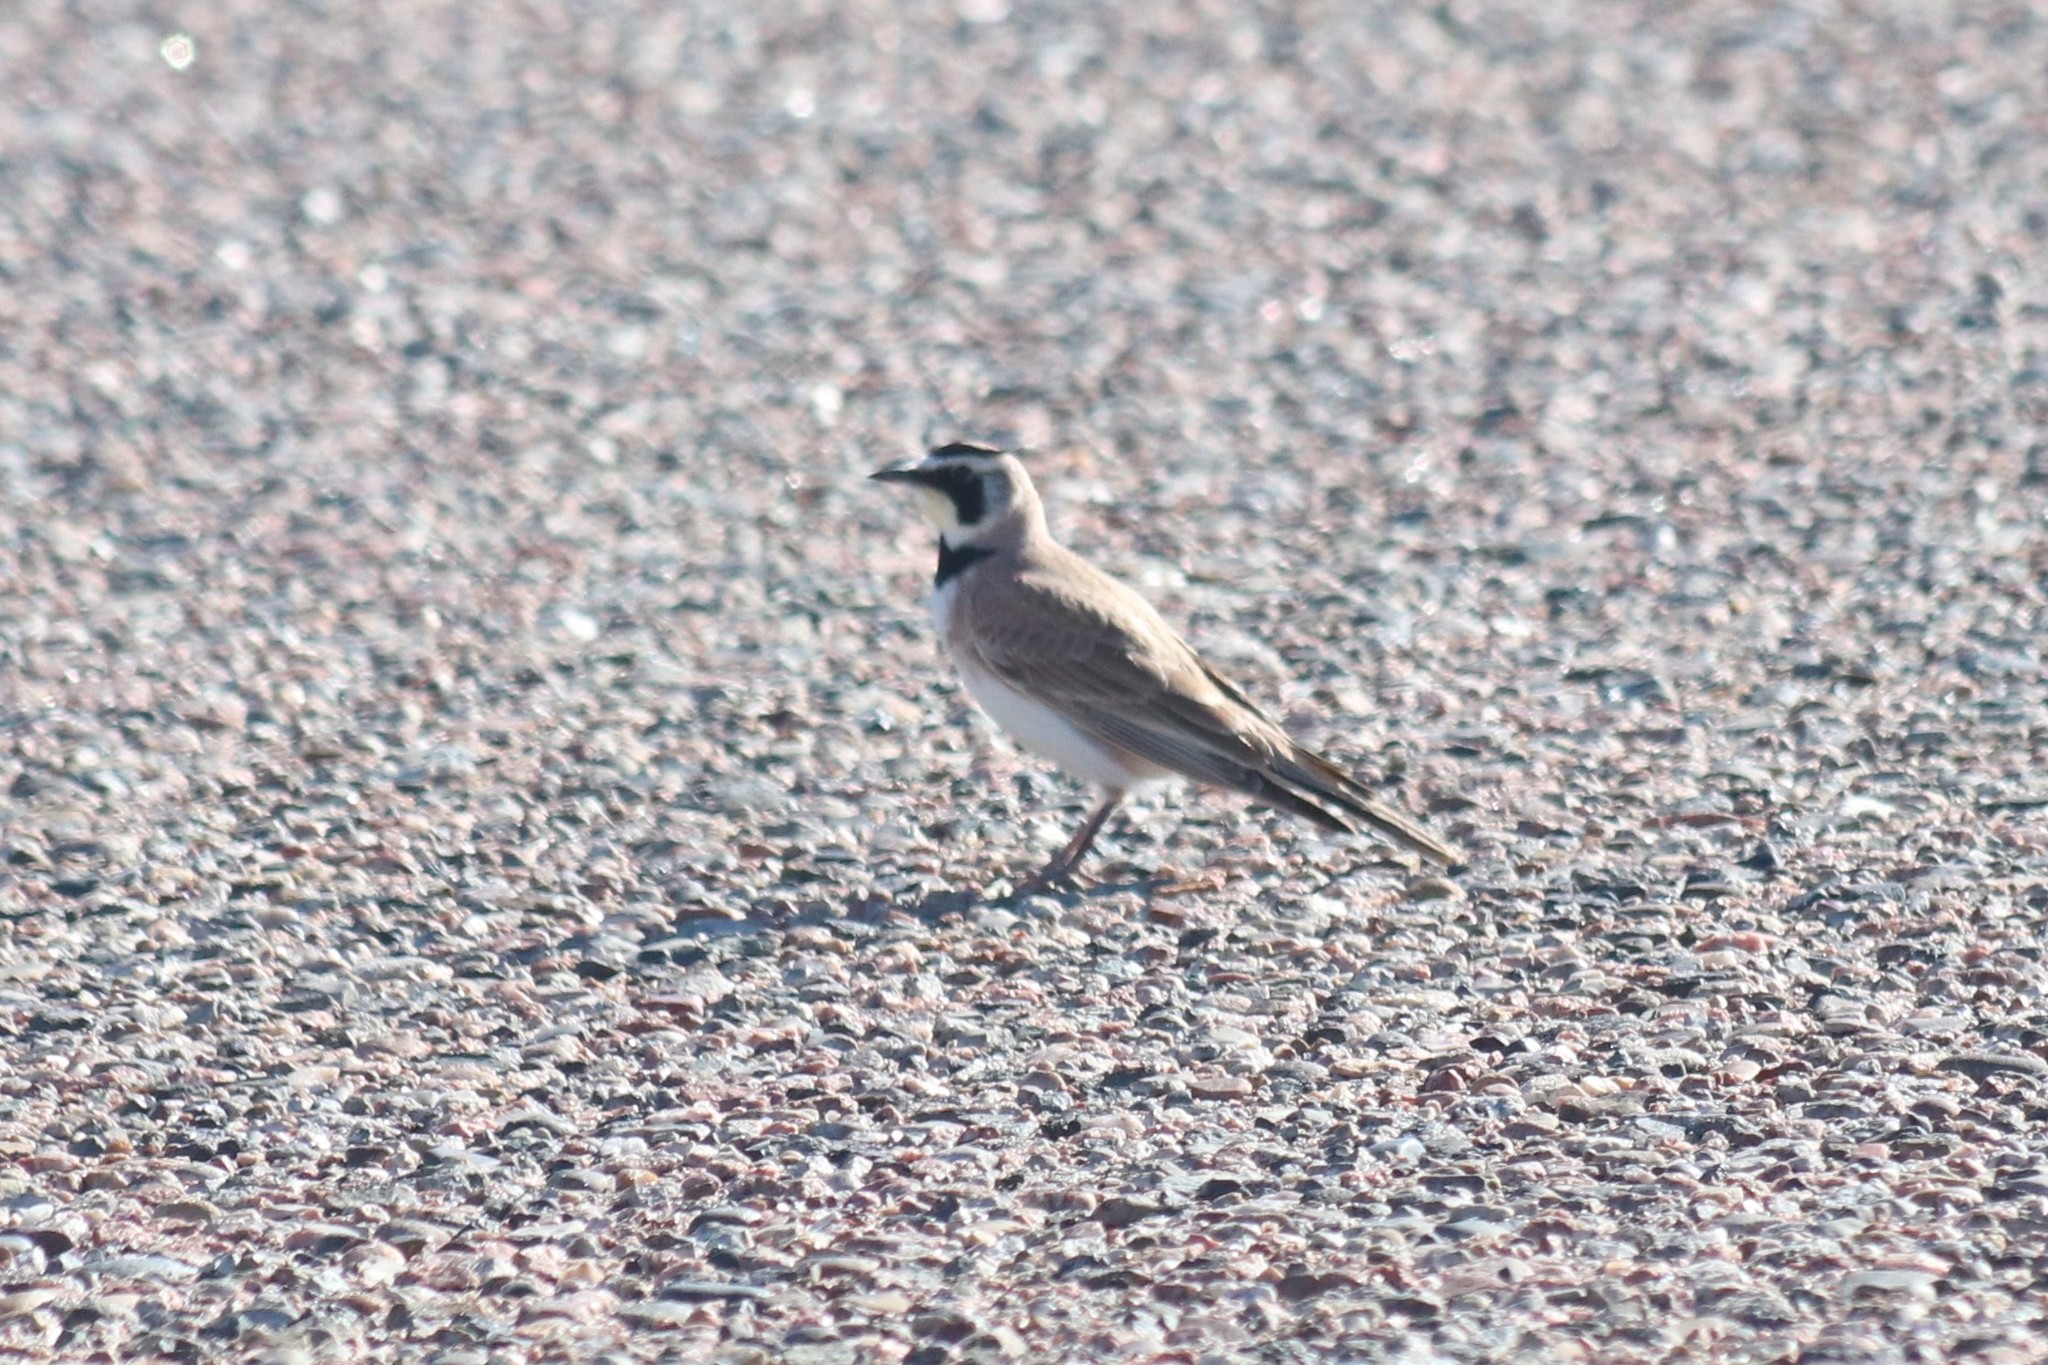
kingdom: Animalia
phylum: Chordata
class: Aves
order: Passeriformes
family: Alaudidae
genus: Eremophila
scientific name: Eremophila alpestris
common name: Horned lark
